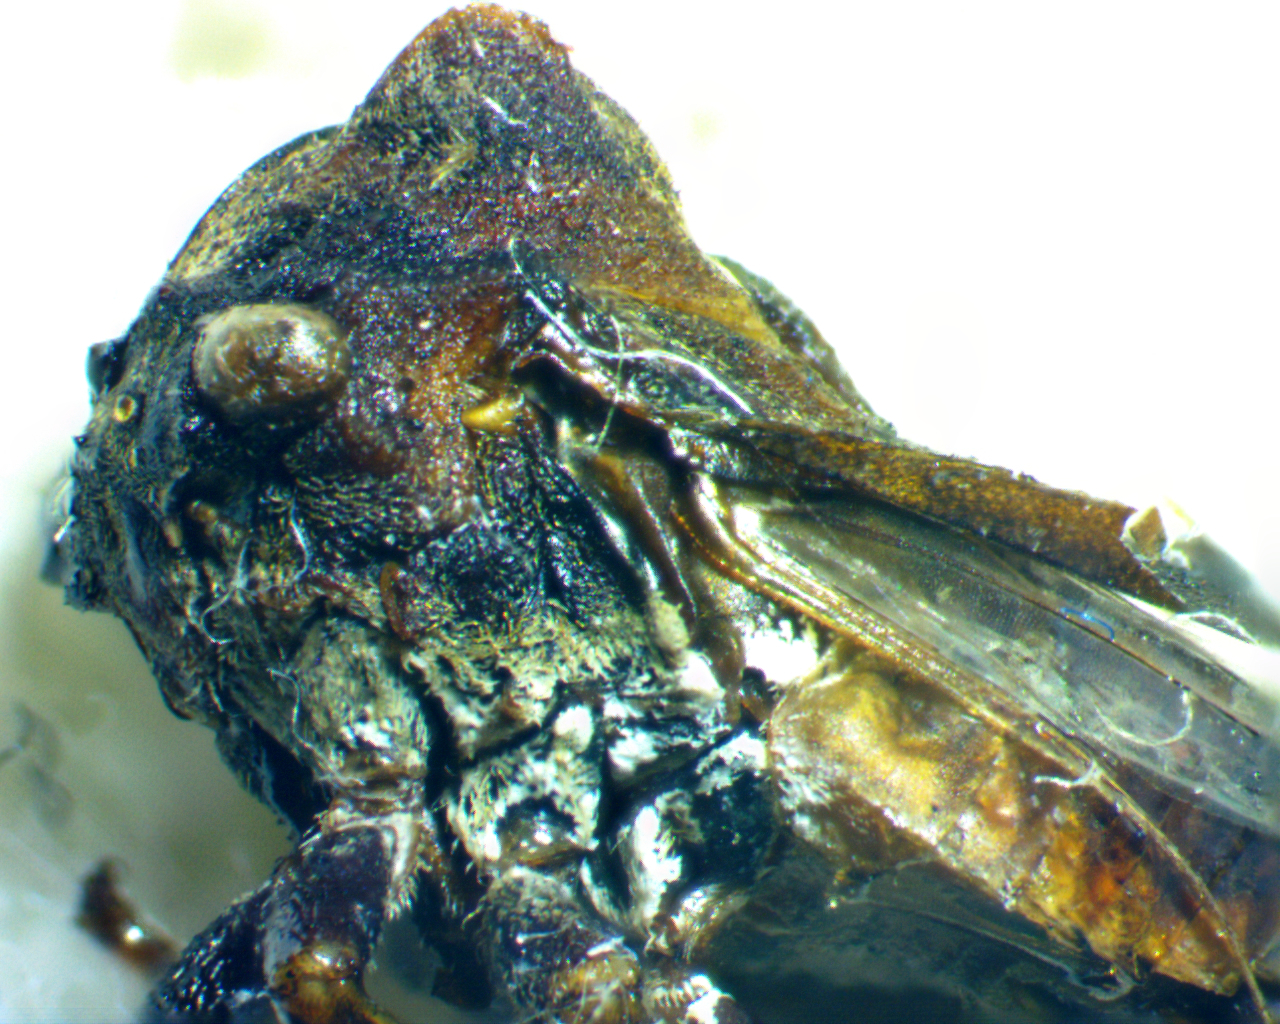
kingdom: Animalia
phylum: Arthropoda
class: Insecta
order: Hemiptera
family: Membracidae
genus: Microcentrus
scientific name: Microcentrus perdita
